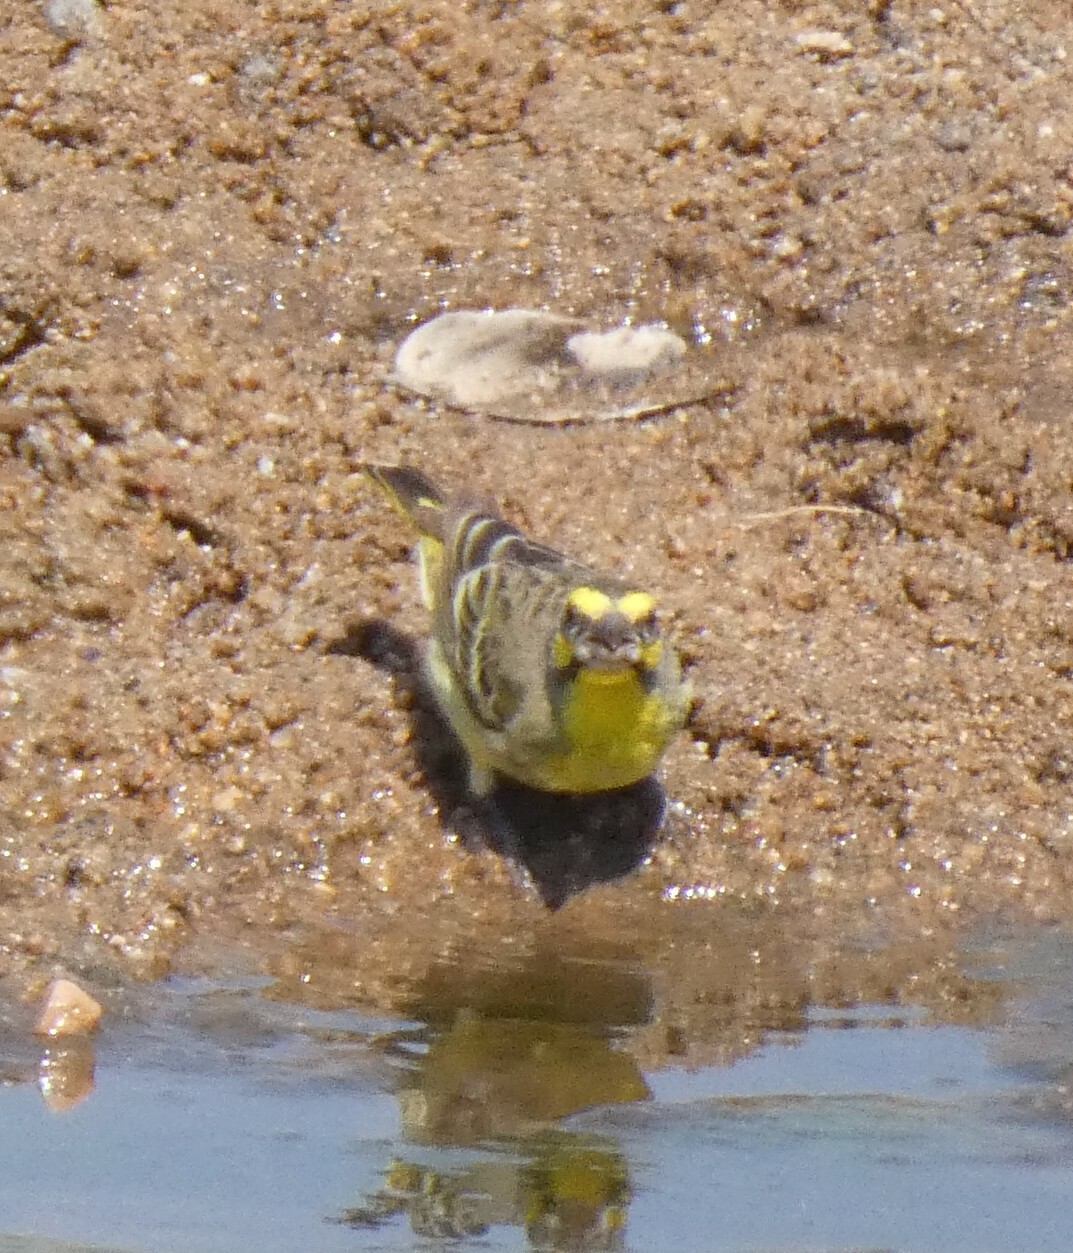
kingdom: Animalia
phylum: Chordata
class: Aves
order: Passeriformes
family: Fringillidae
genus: Crithagra
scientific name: Crithagra mozambica
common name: Yellow-fronted canary
